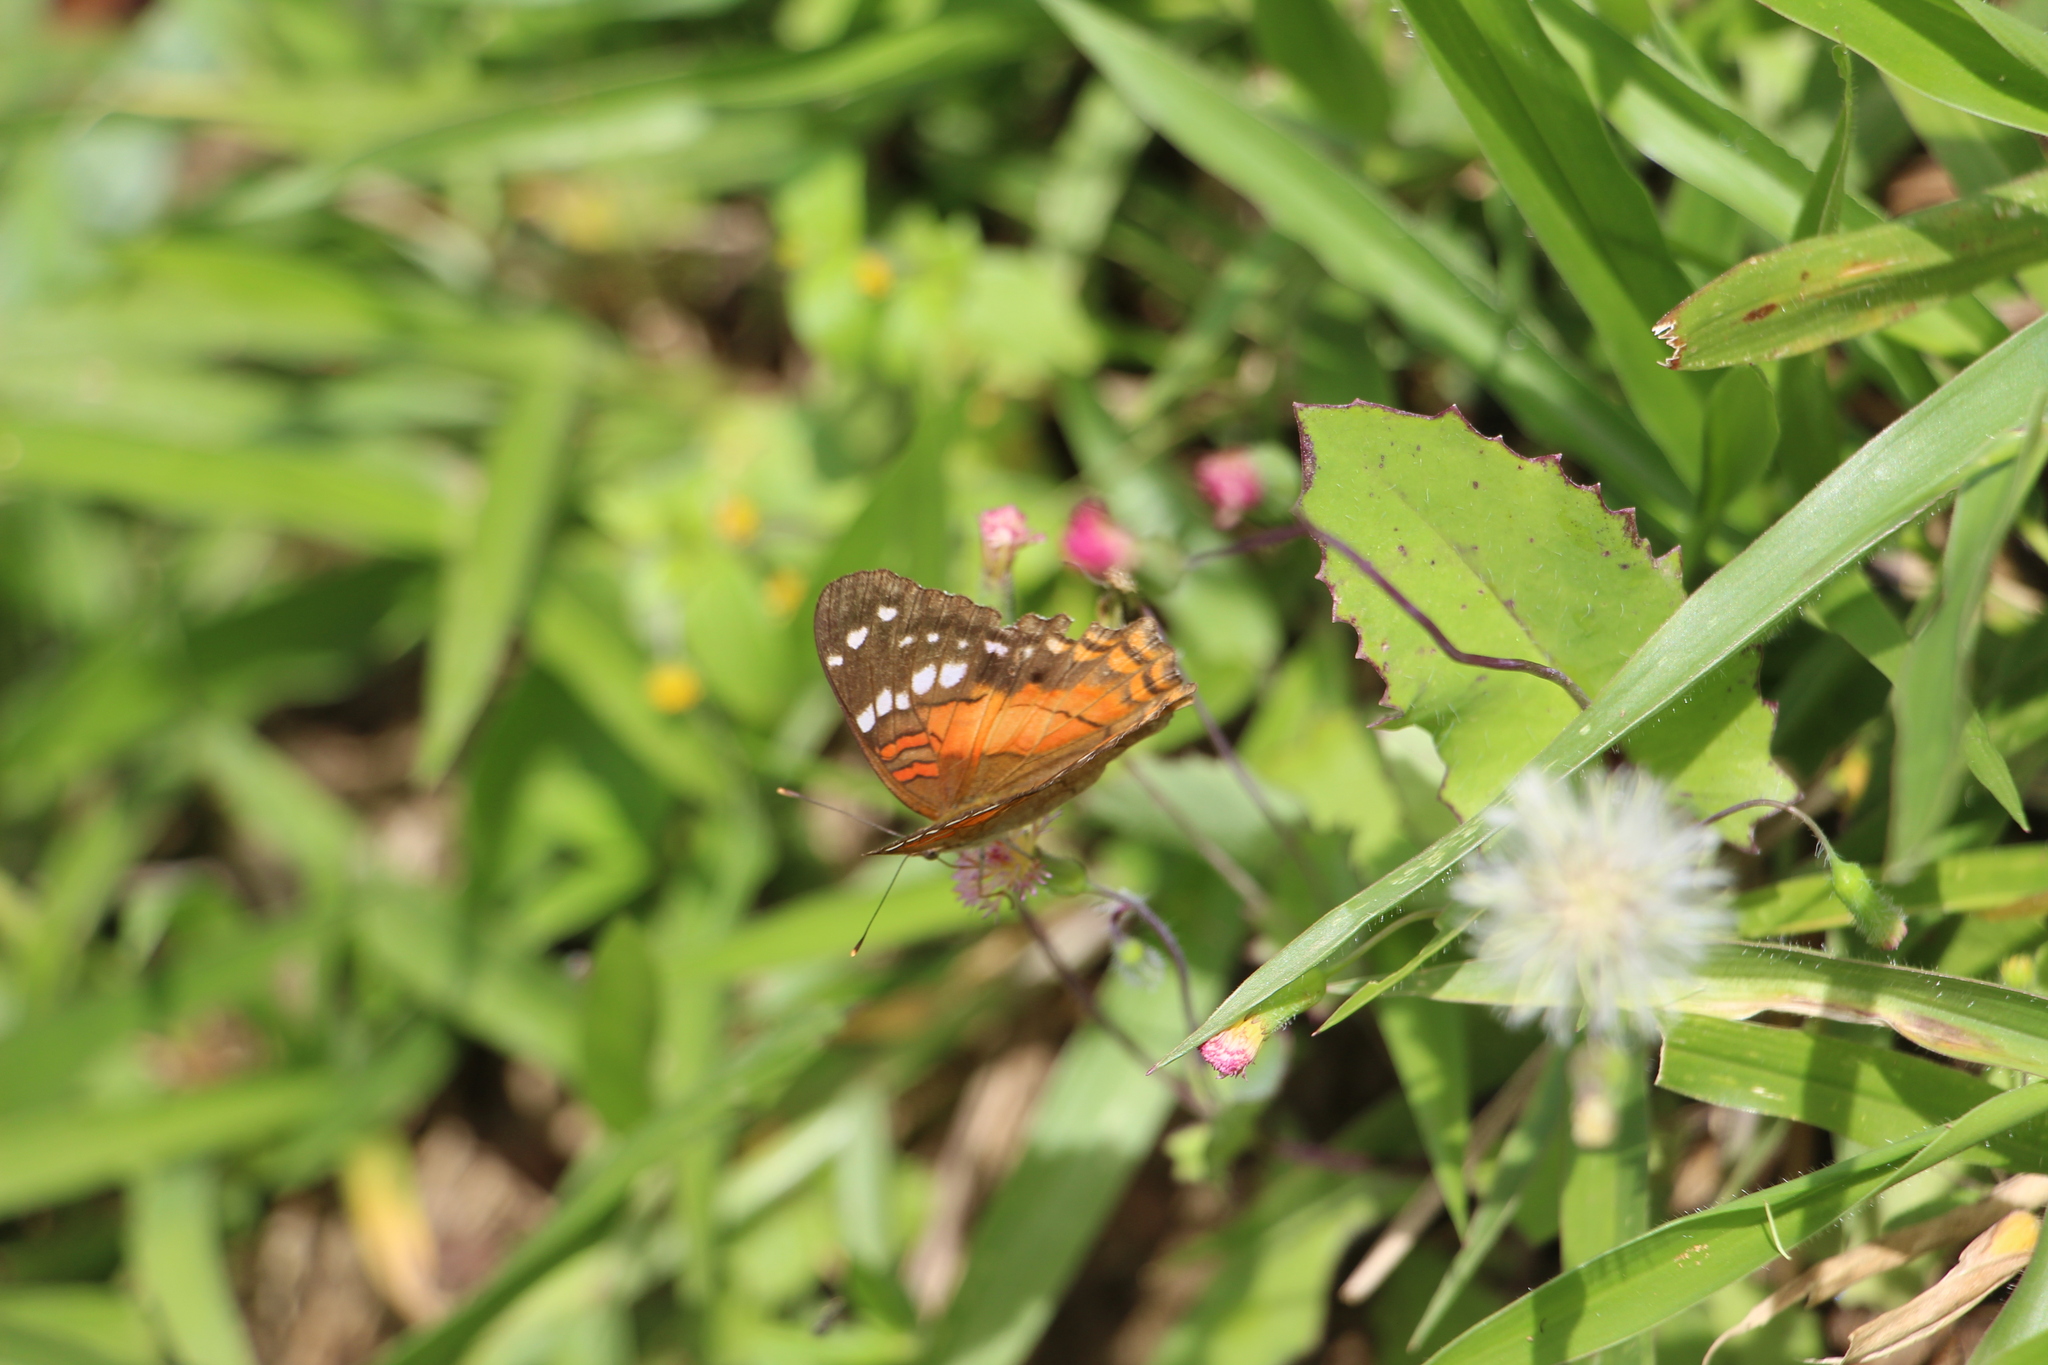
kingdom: Animalia
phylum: Arthropoda
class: Insecta
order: Lepidoptera
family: Nymphalidae
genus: Anartia
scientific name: Anartia amathea
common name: Red peacock
